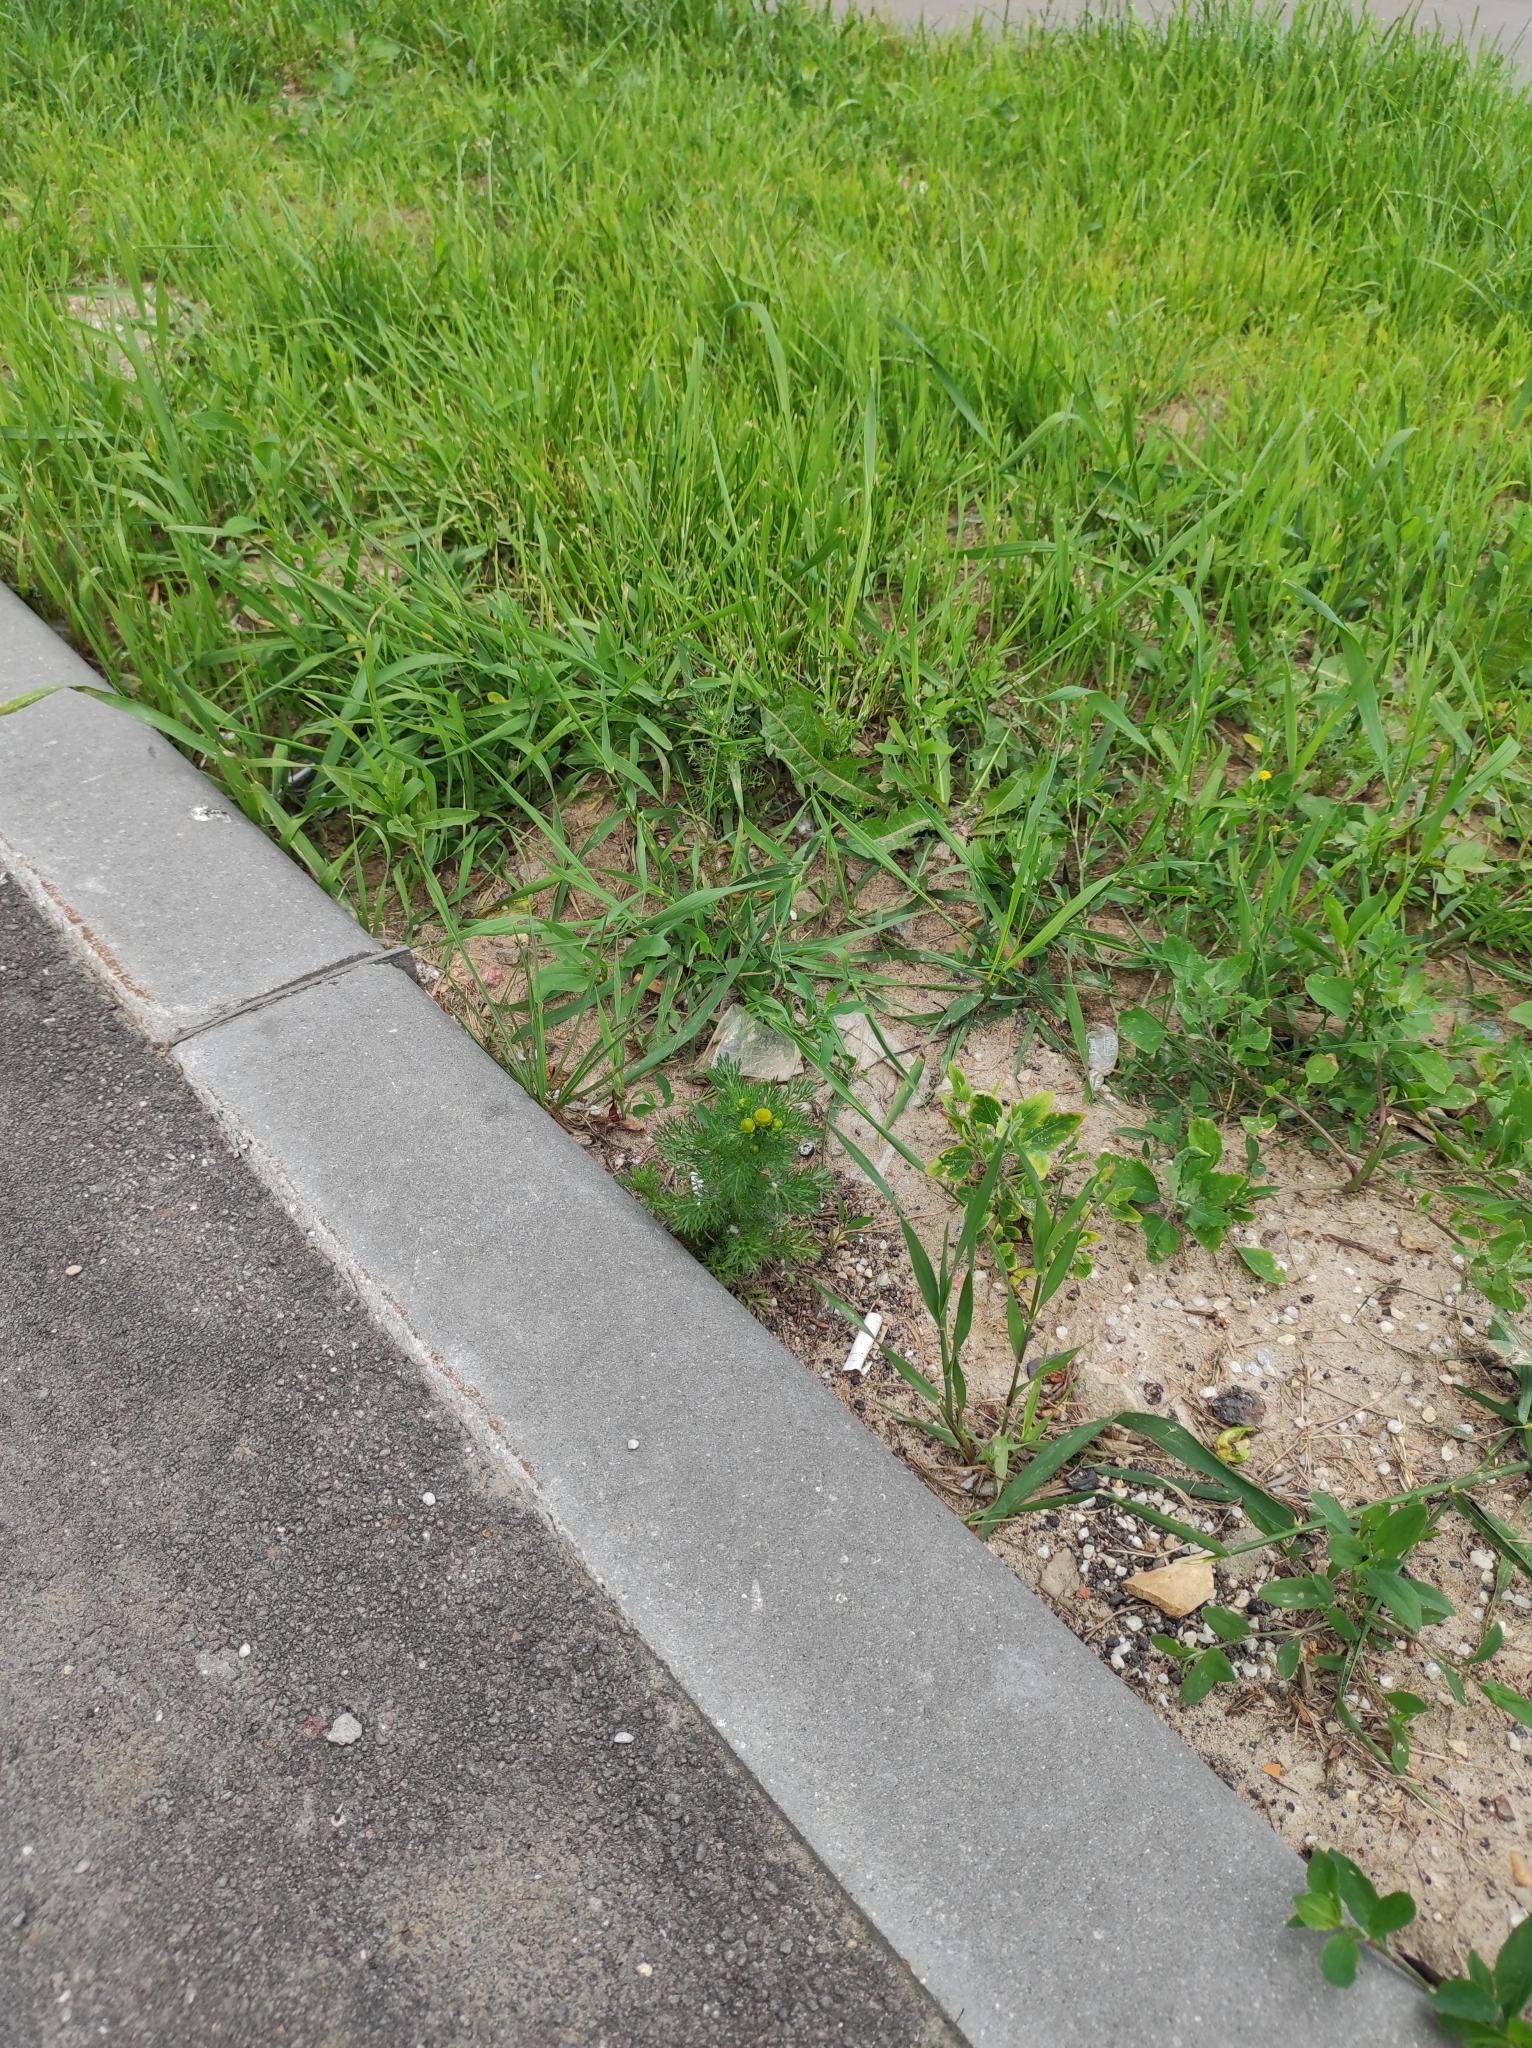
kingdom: Plantae
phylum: Tracheophyta
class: Magnoliopsida
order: Asterales
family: Asteraceae
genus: Matricaria
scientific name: Matricaria discoidea
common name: Disc mayweed
